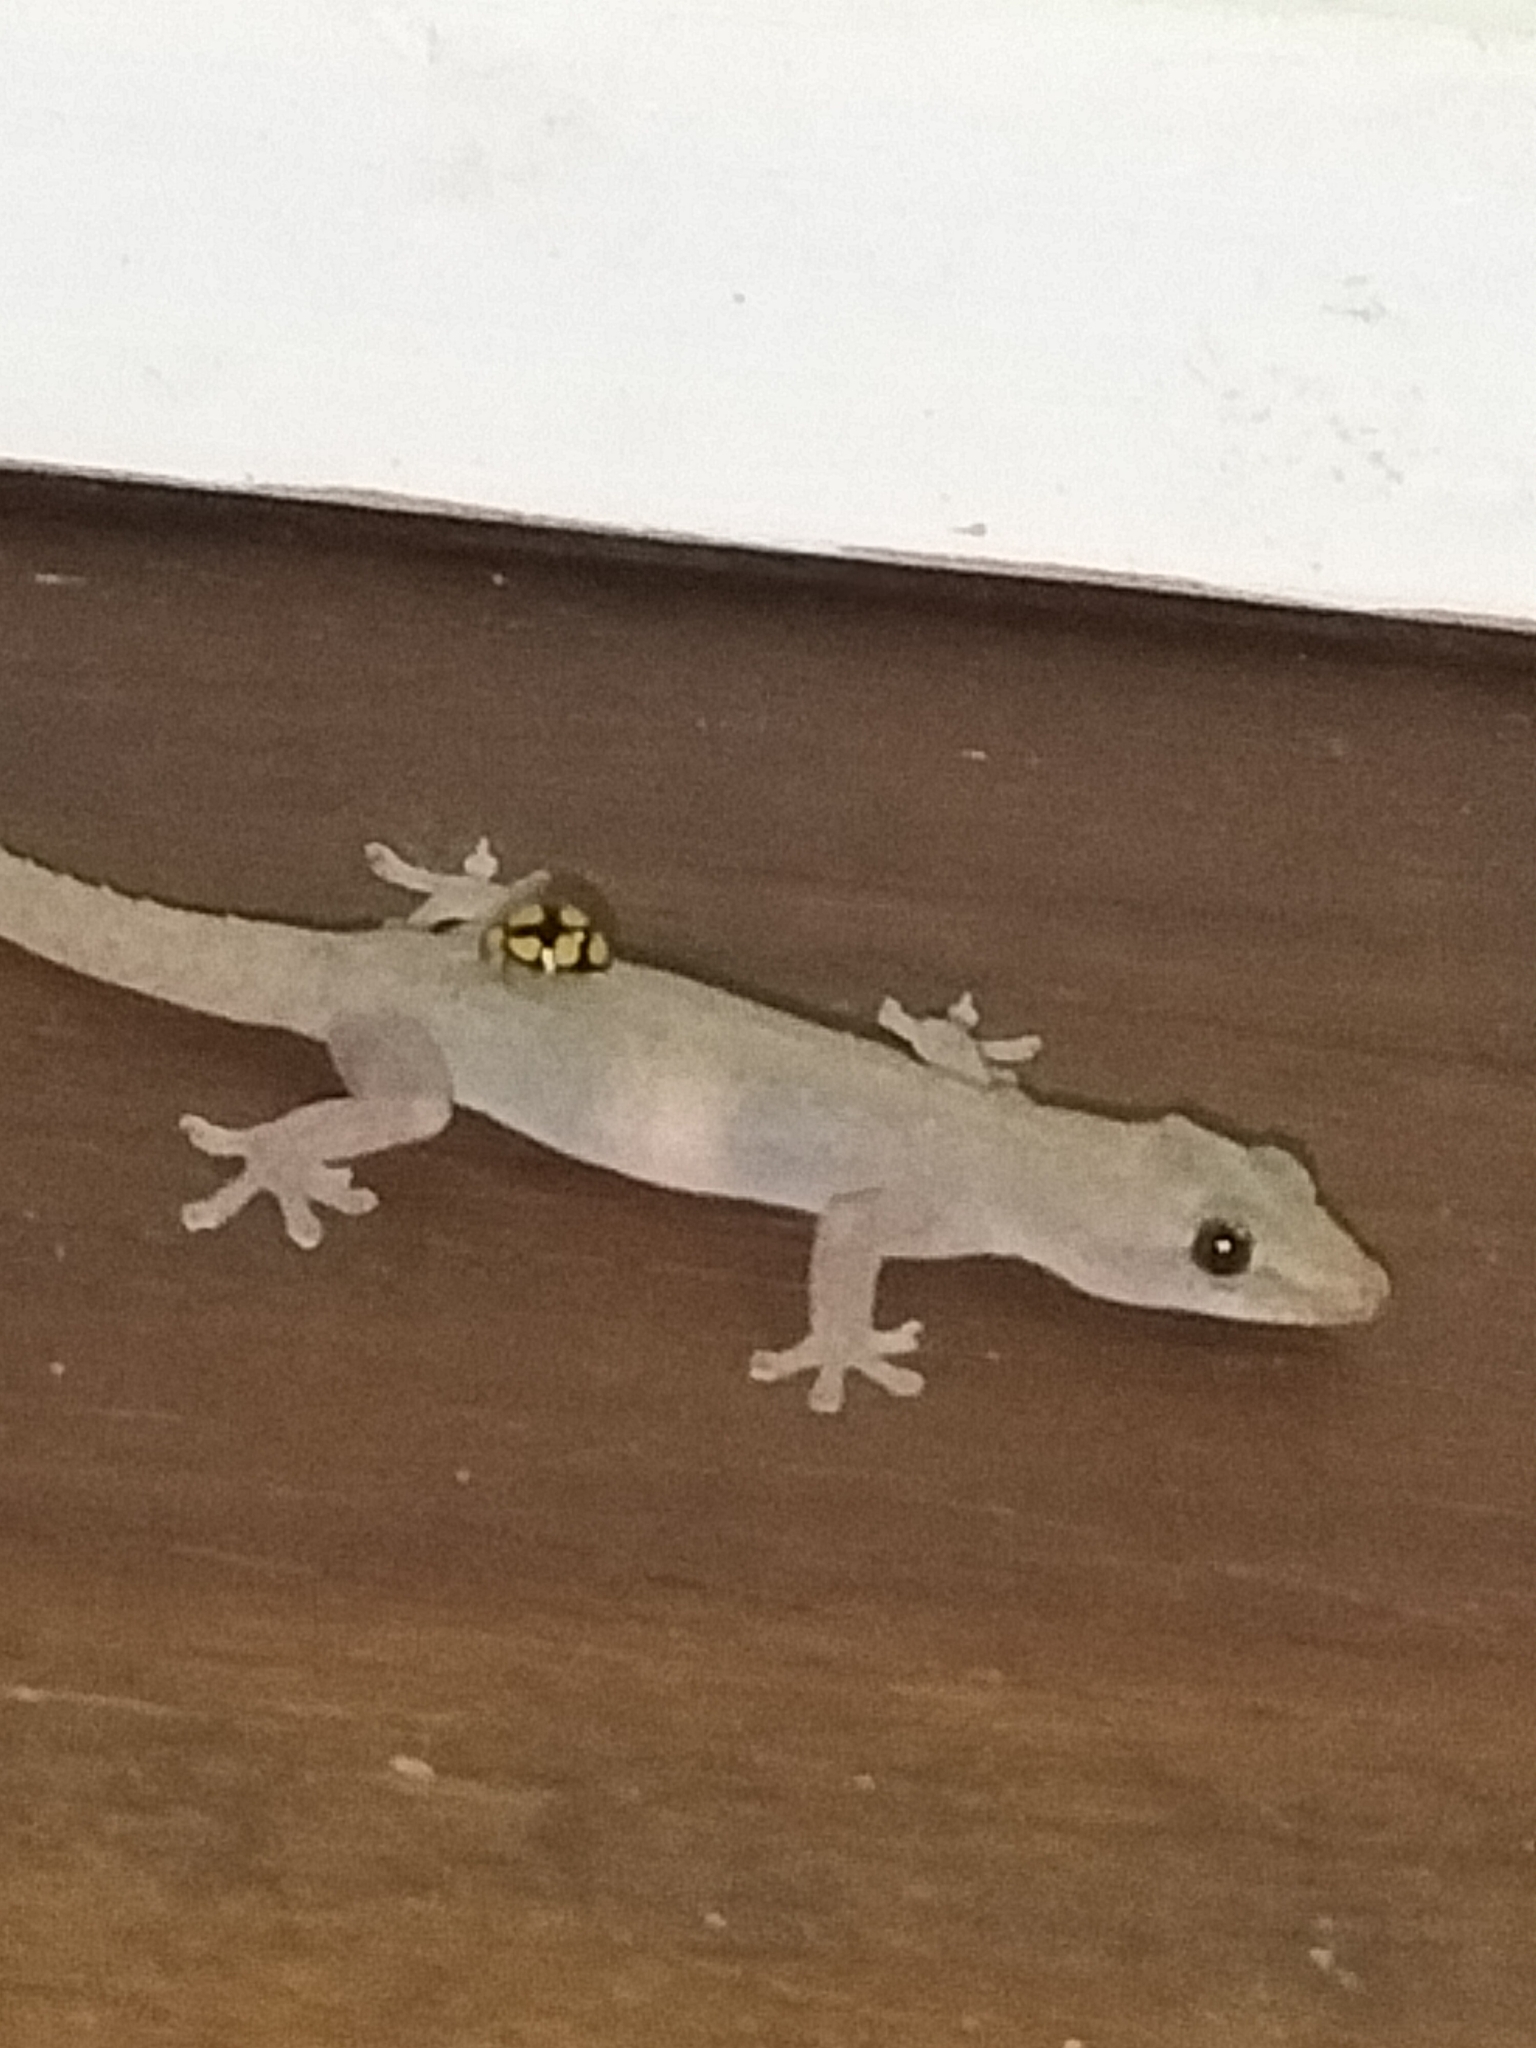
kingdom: Animalia
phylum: Arthropoda
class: Insecta
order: Coleoptera
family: Coccinellidae
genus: Harmonia
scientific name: Harmonia
